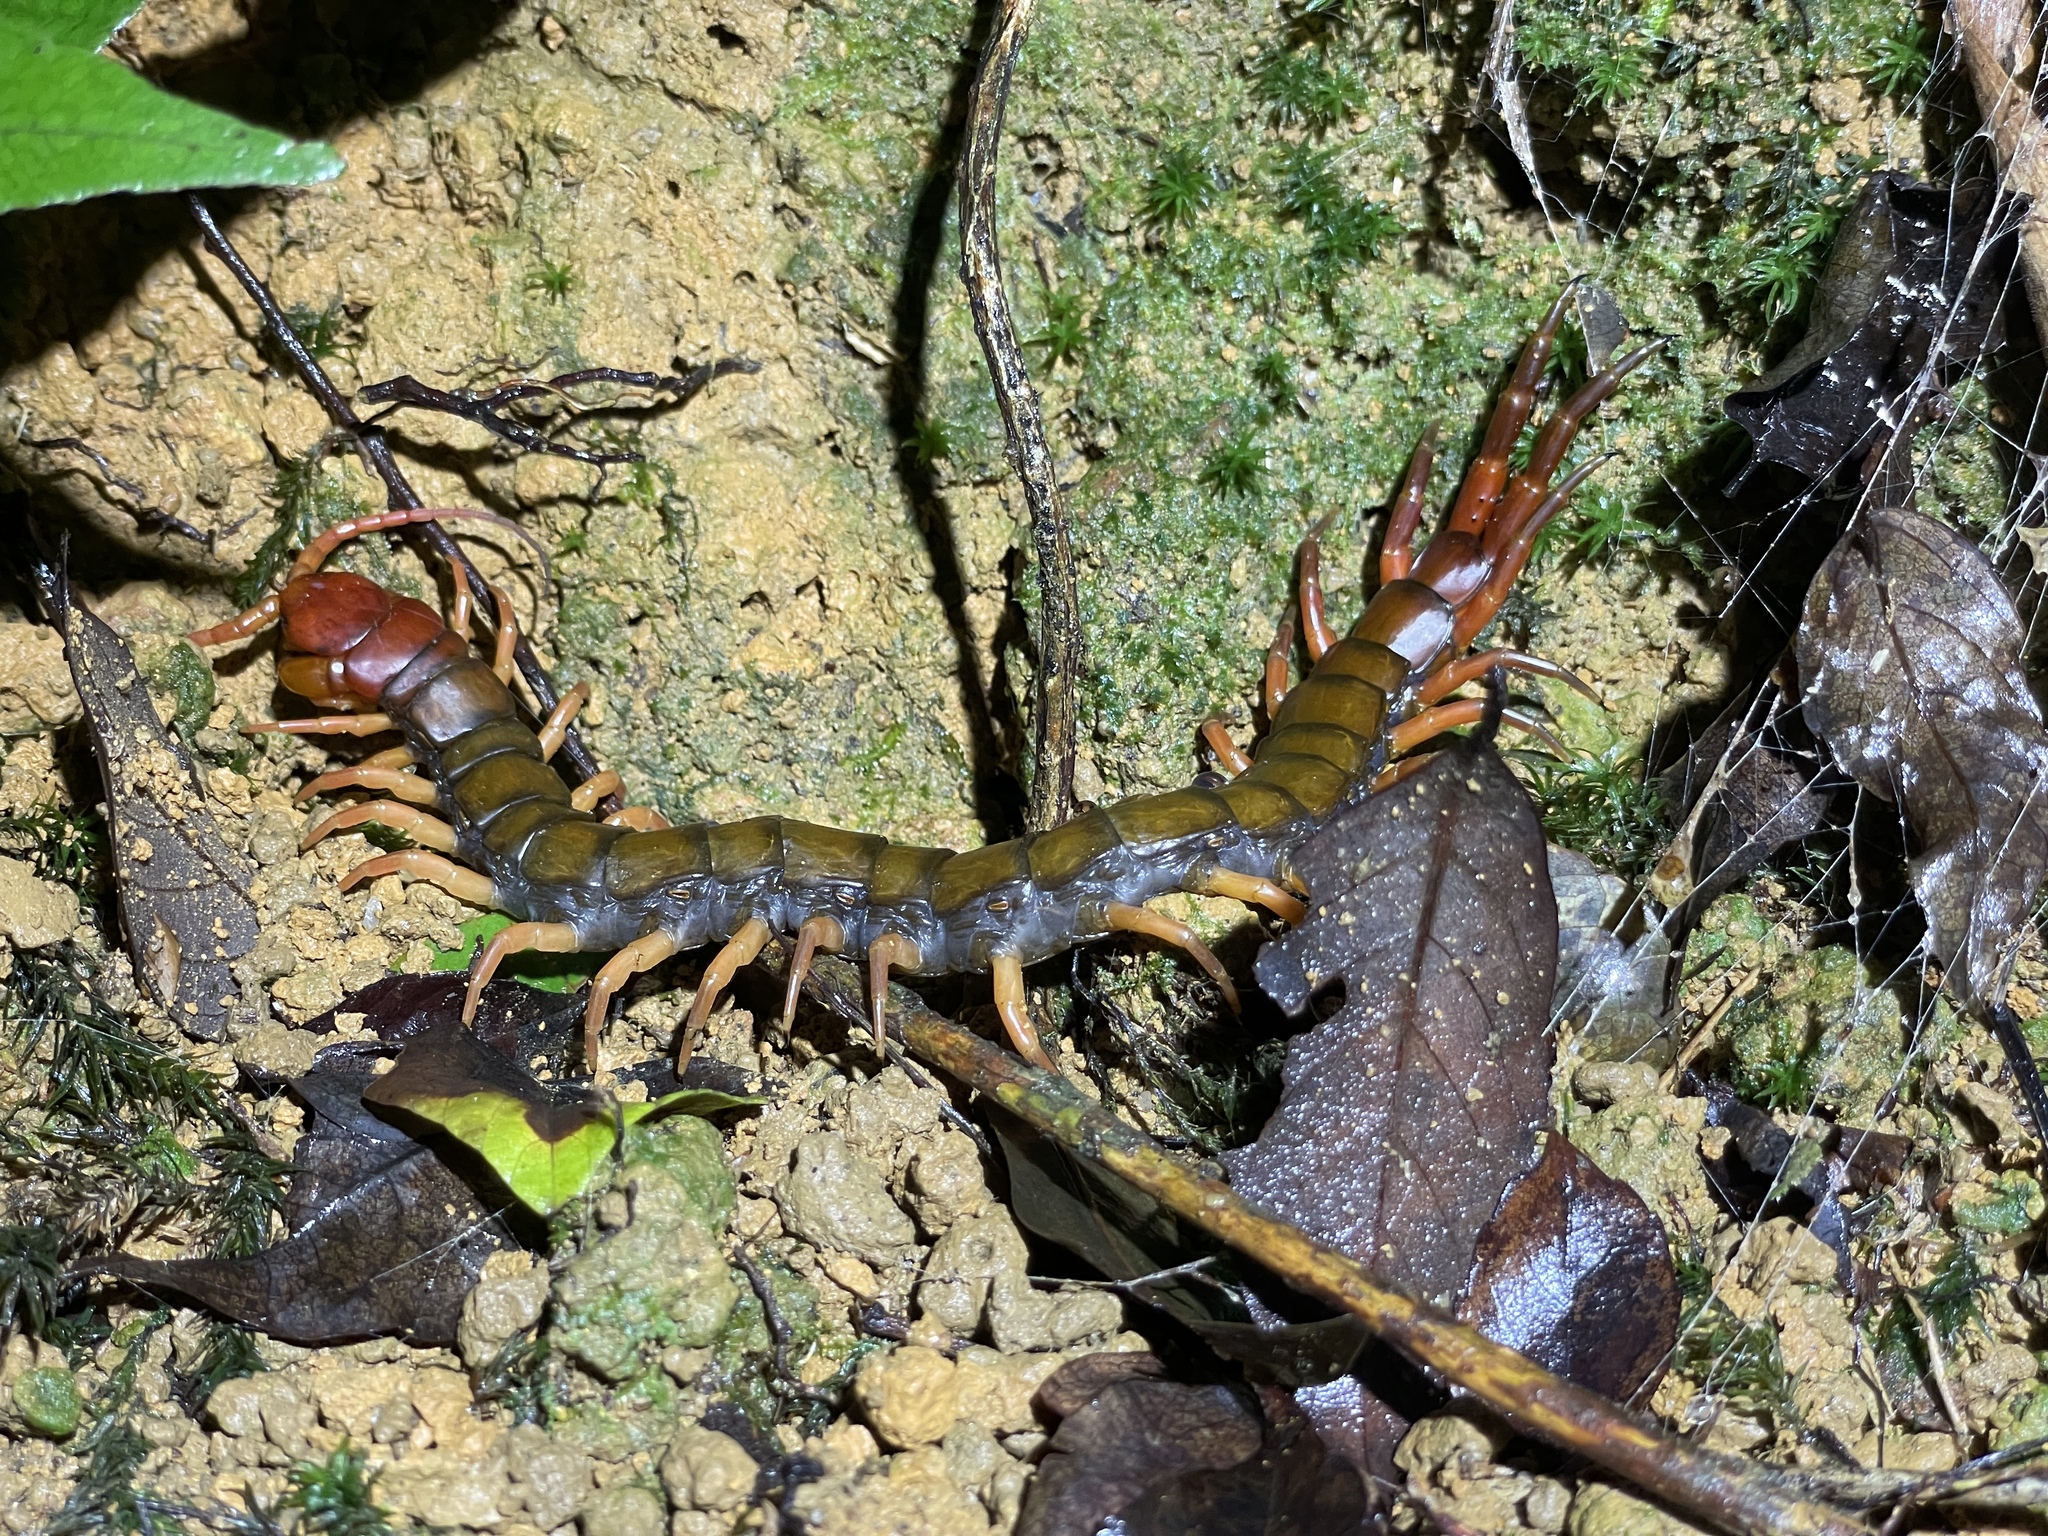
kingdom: Animalia
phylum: Arthropoda
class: Chilopoda
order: Scolopendromorpha
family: Scolopendridae
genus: Scolopendra
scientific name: Scolopendra multidens
